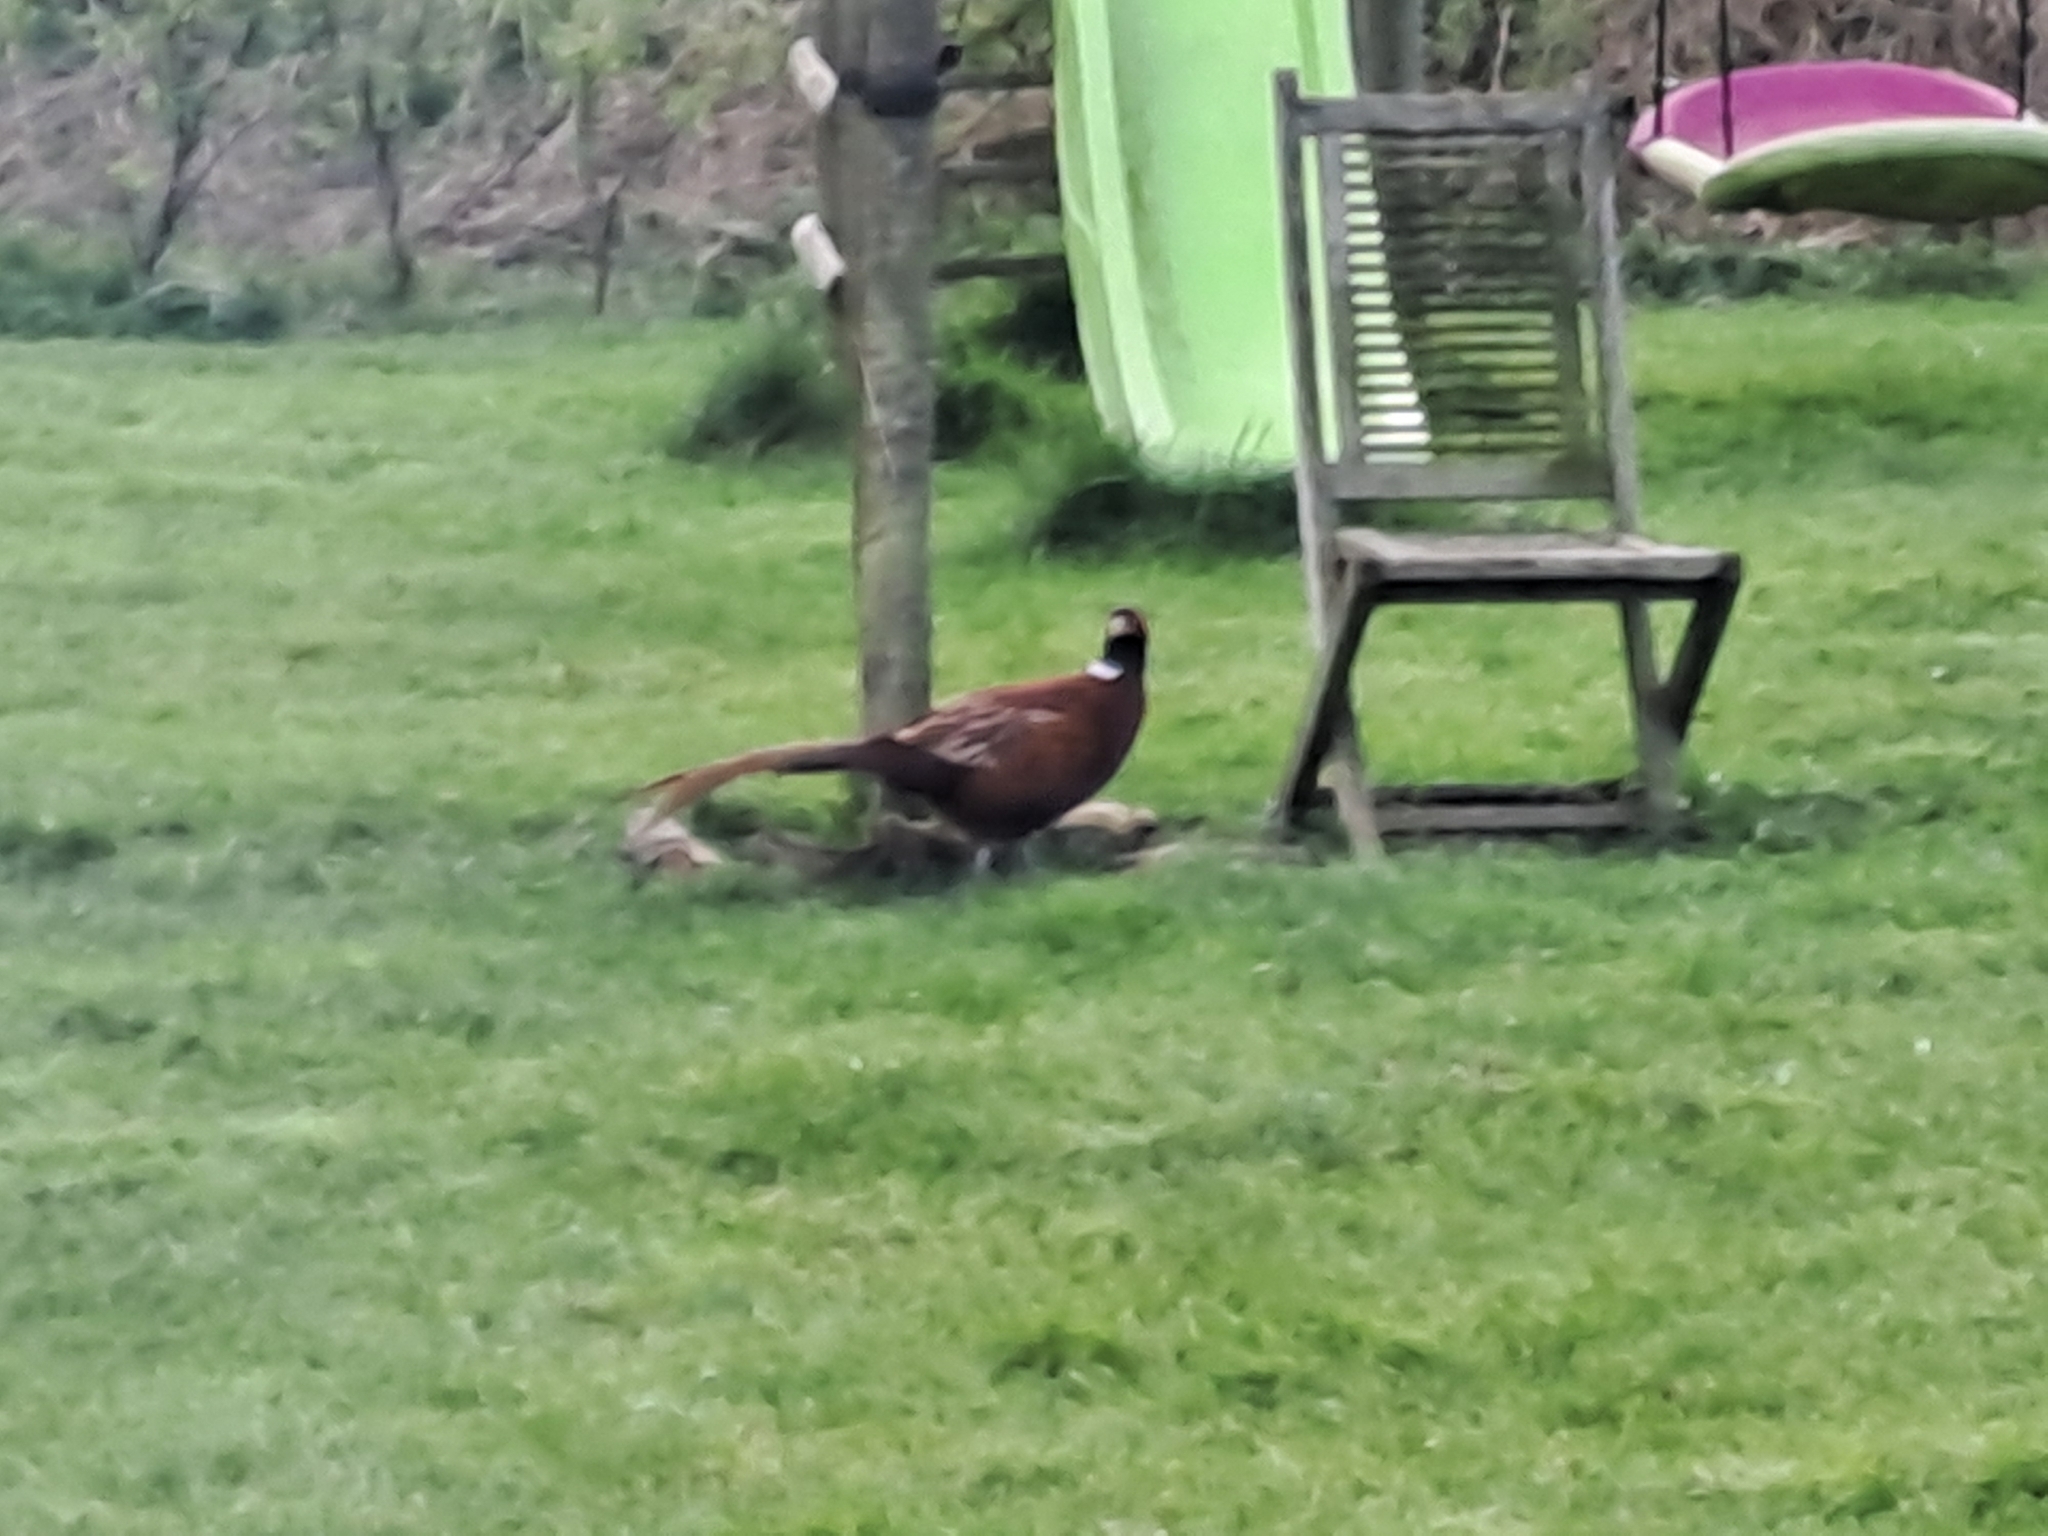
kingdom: Animalia
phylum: Chordata
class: Aves
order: Galliformes
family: Phasianidae
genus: Phasianus
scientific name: Phasianus colchicus
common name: Common pheasant
